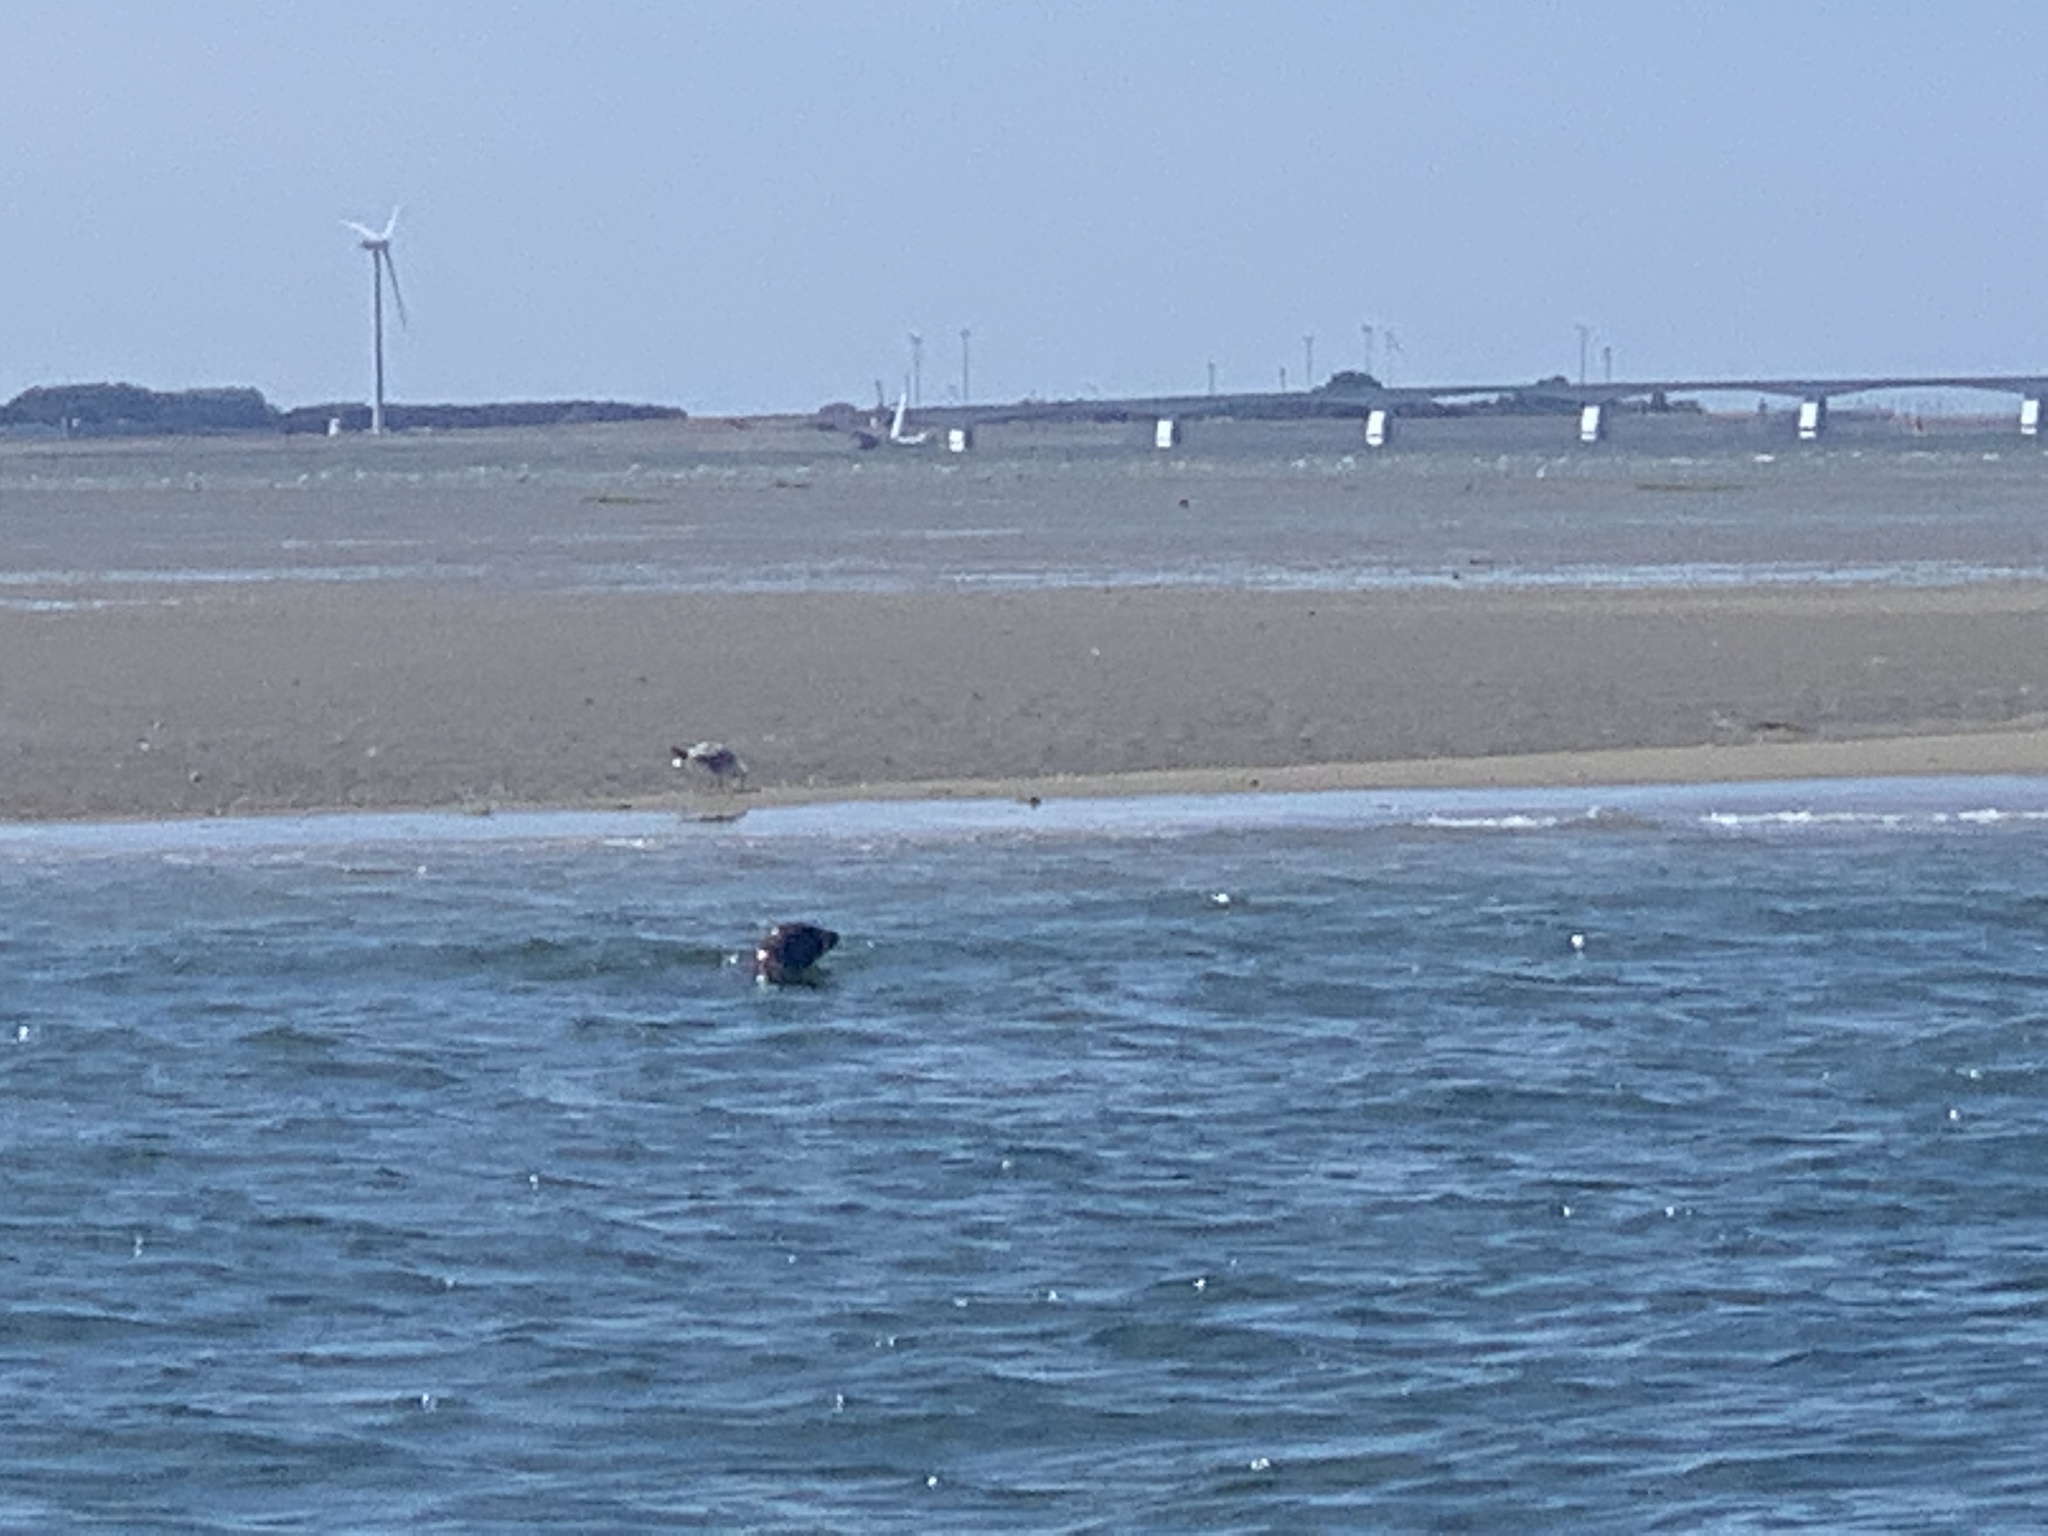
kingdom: Animalia
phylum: Chordata
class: Mammalia
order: Carnivora
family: Phocidae
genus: Halichoerus
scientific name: Halichoerus grypus
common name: Grey seal
